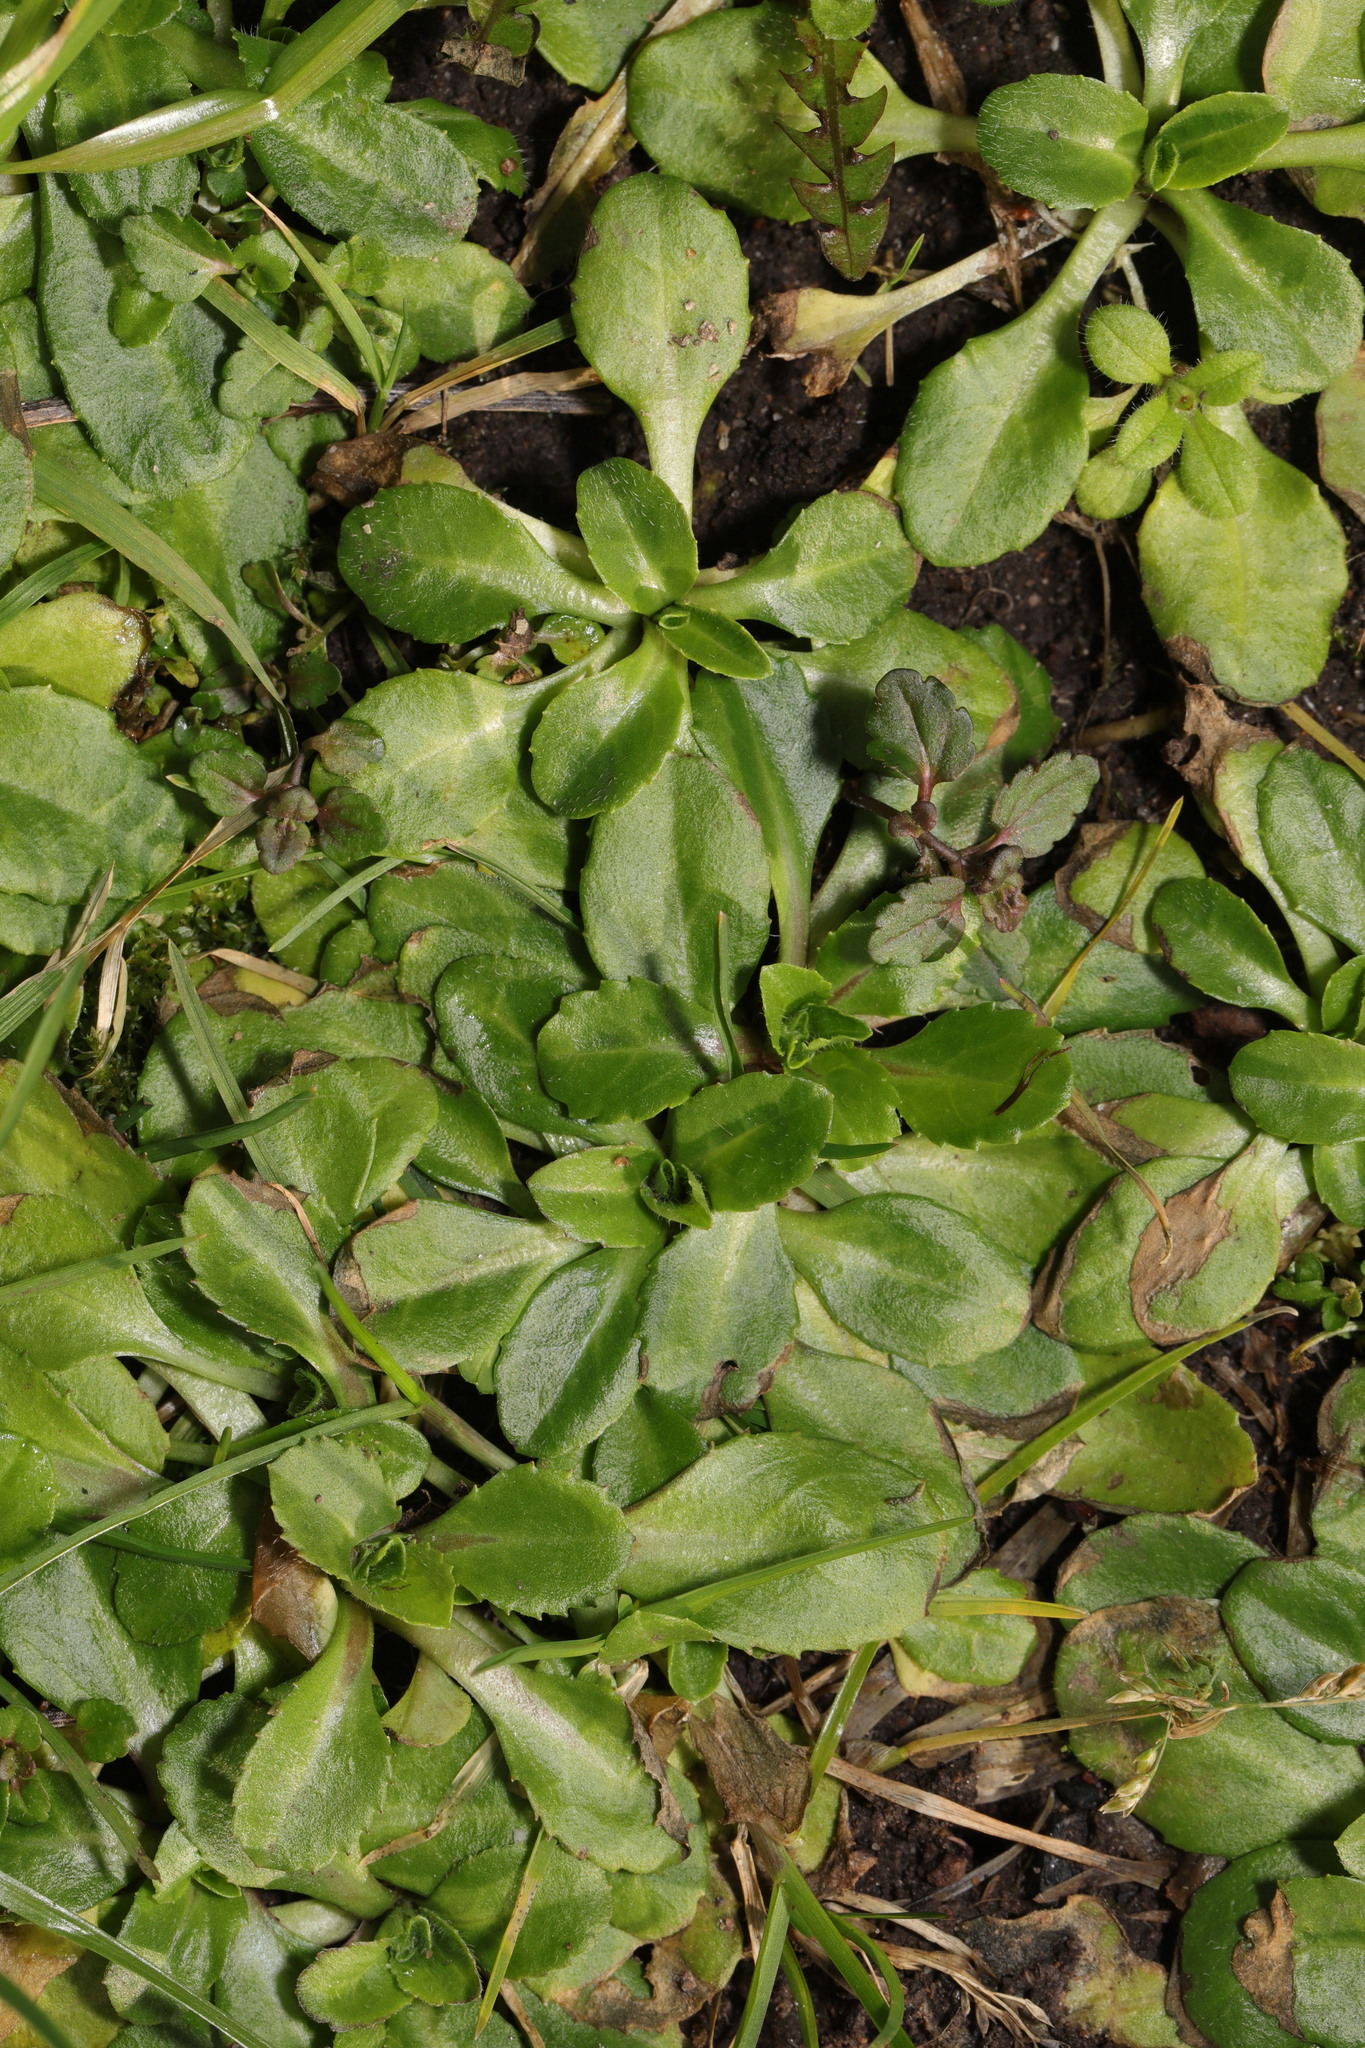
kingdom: Plantae
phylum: Tracheophyta
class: Magnoliopsida
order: Asterales
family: Asteraceae
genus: Bellis
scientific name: Bellis perennis
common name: Lawndaisy
